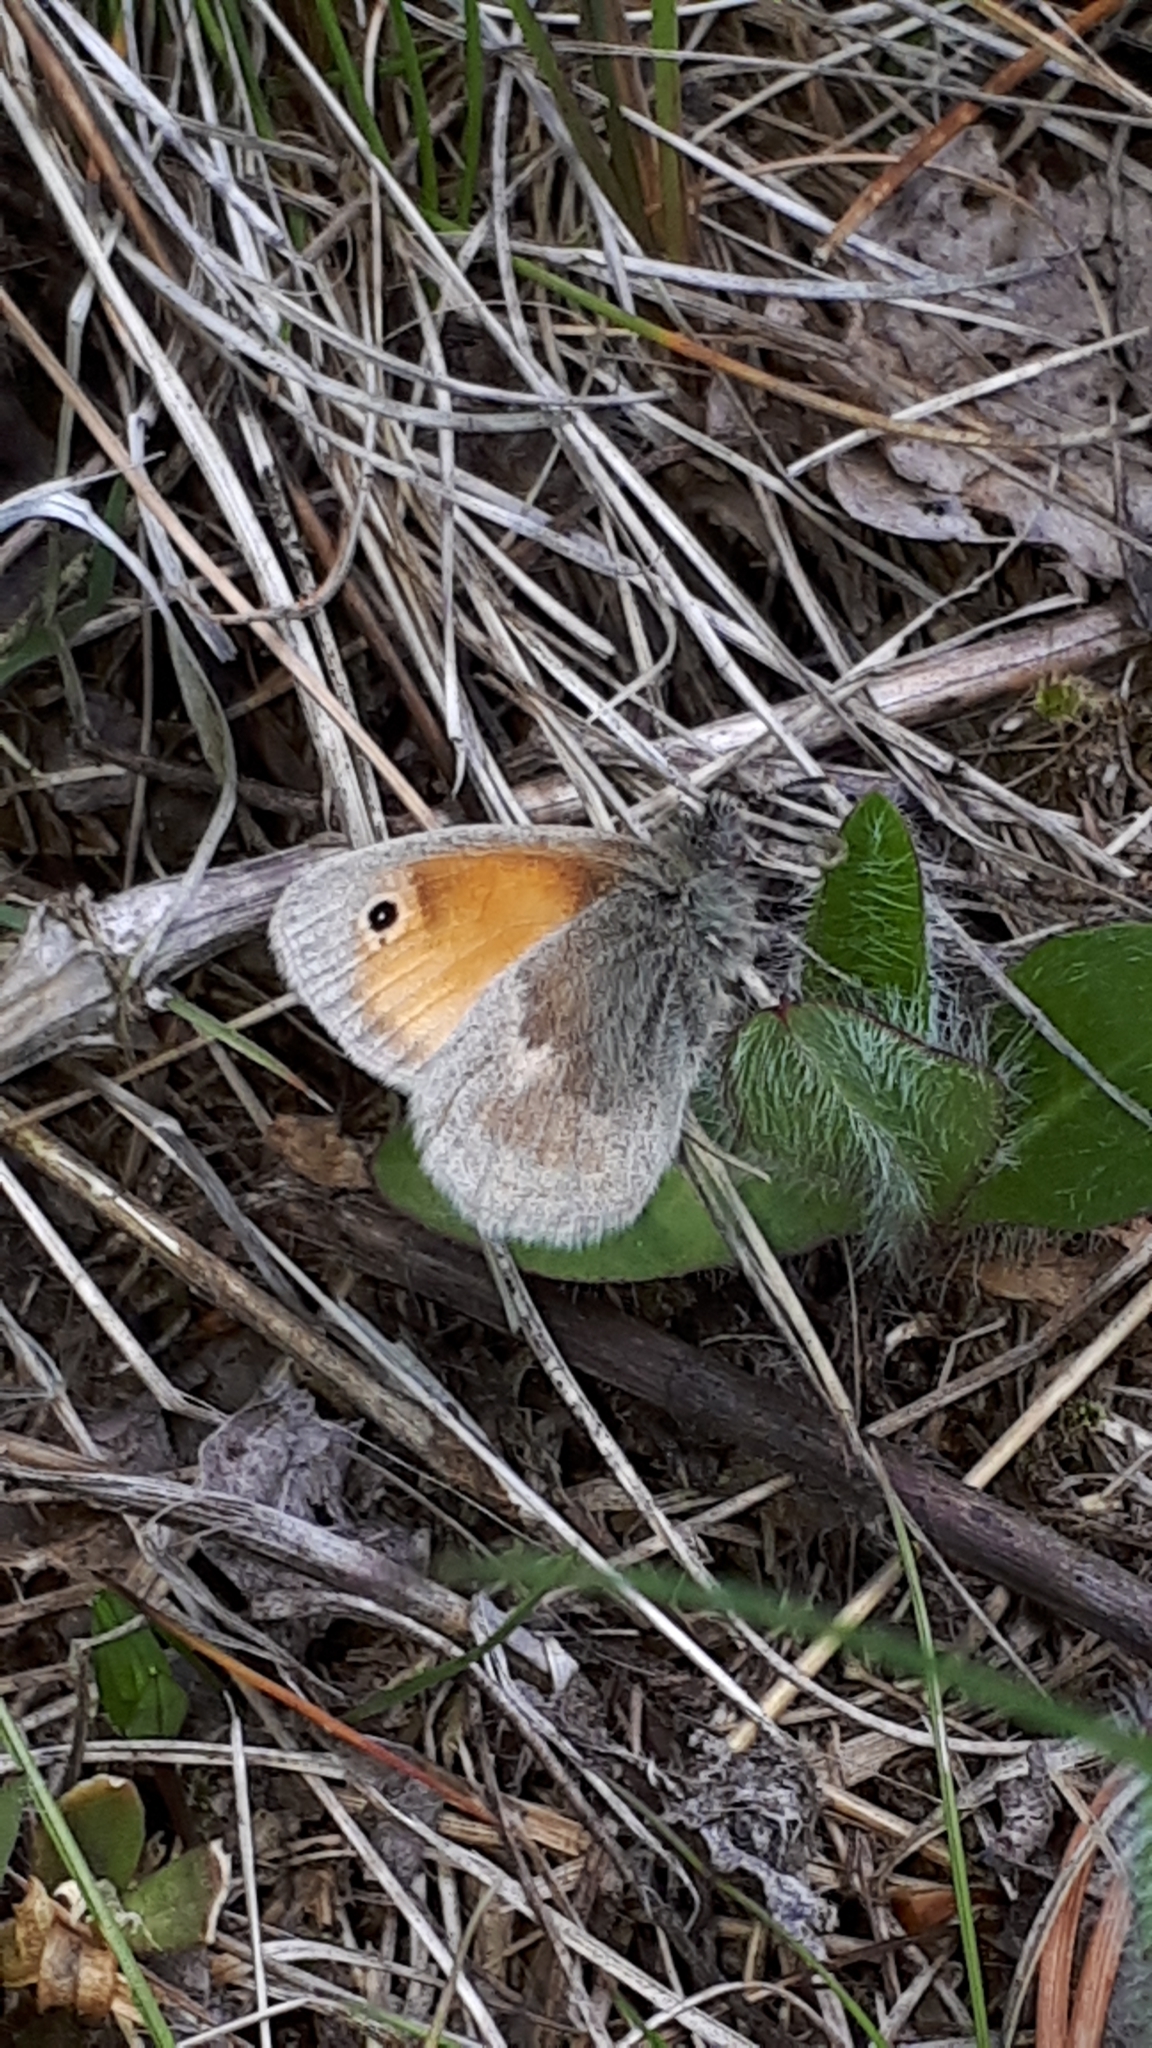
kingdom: Animalia
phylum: Arthropoda
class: Insecta
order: Lepidoptera
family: Nymphalidae
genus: Coenonympha
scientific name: Coenonympha pamphilus
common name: Small heath
